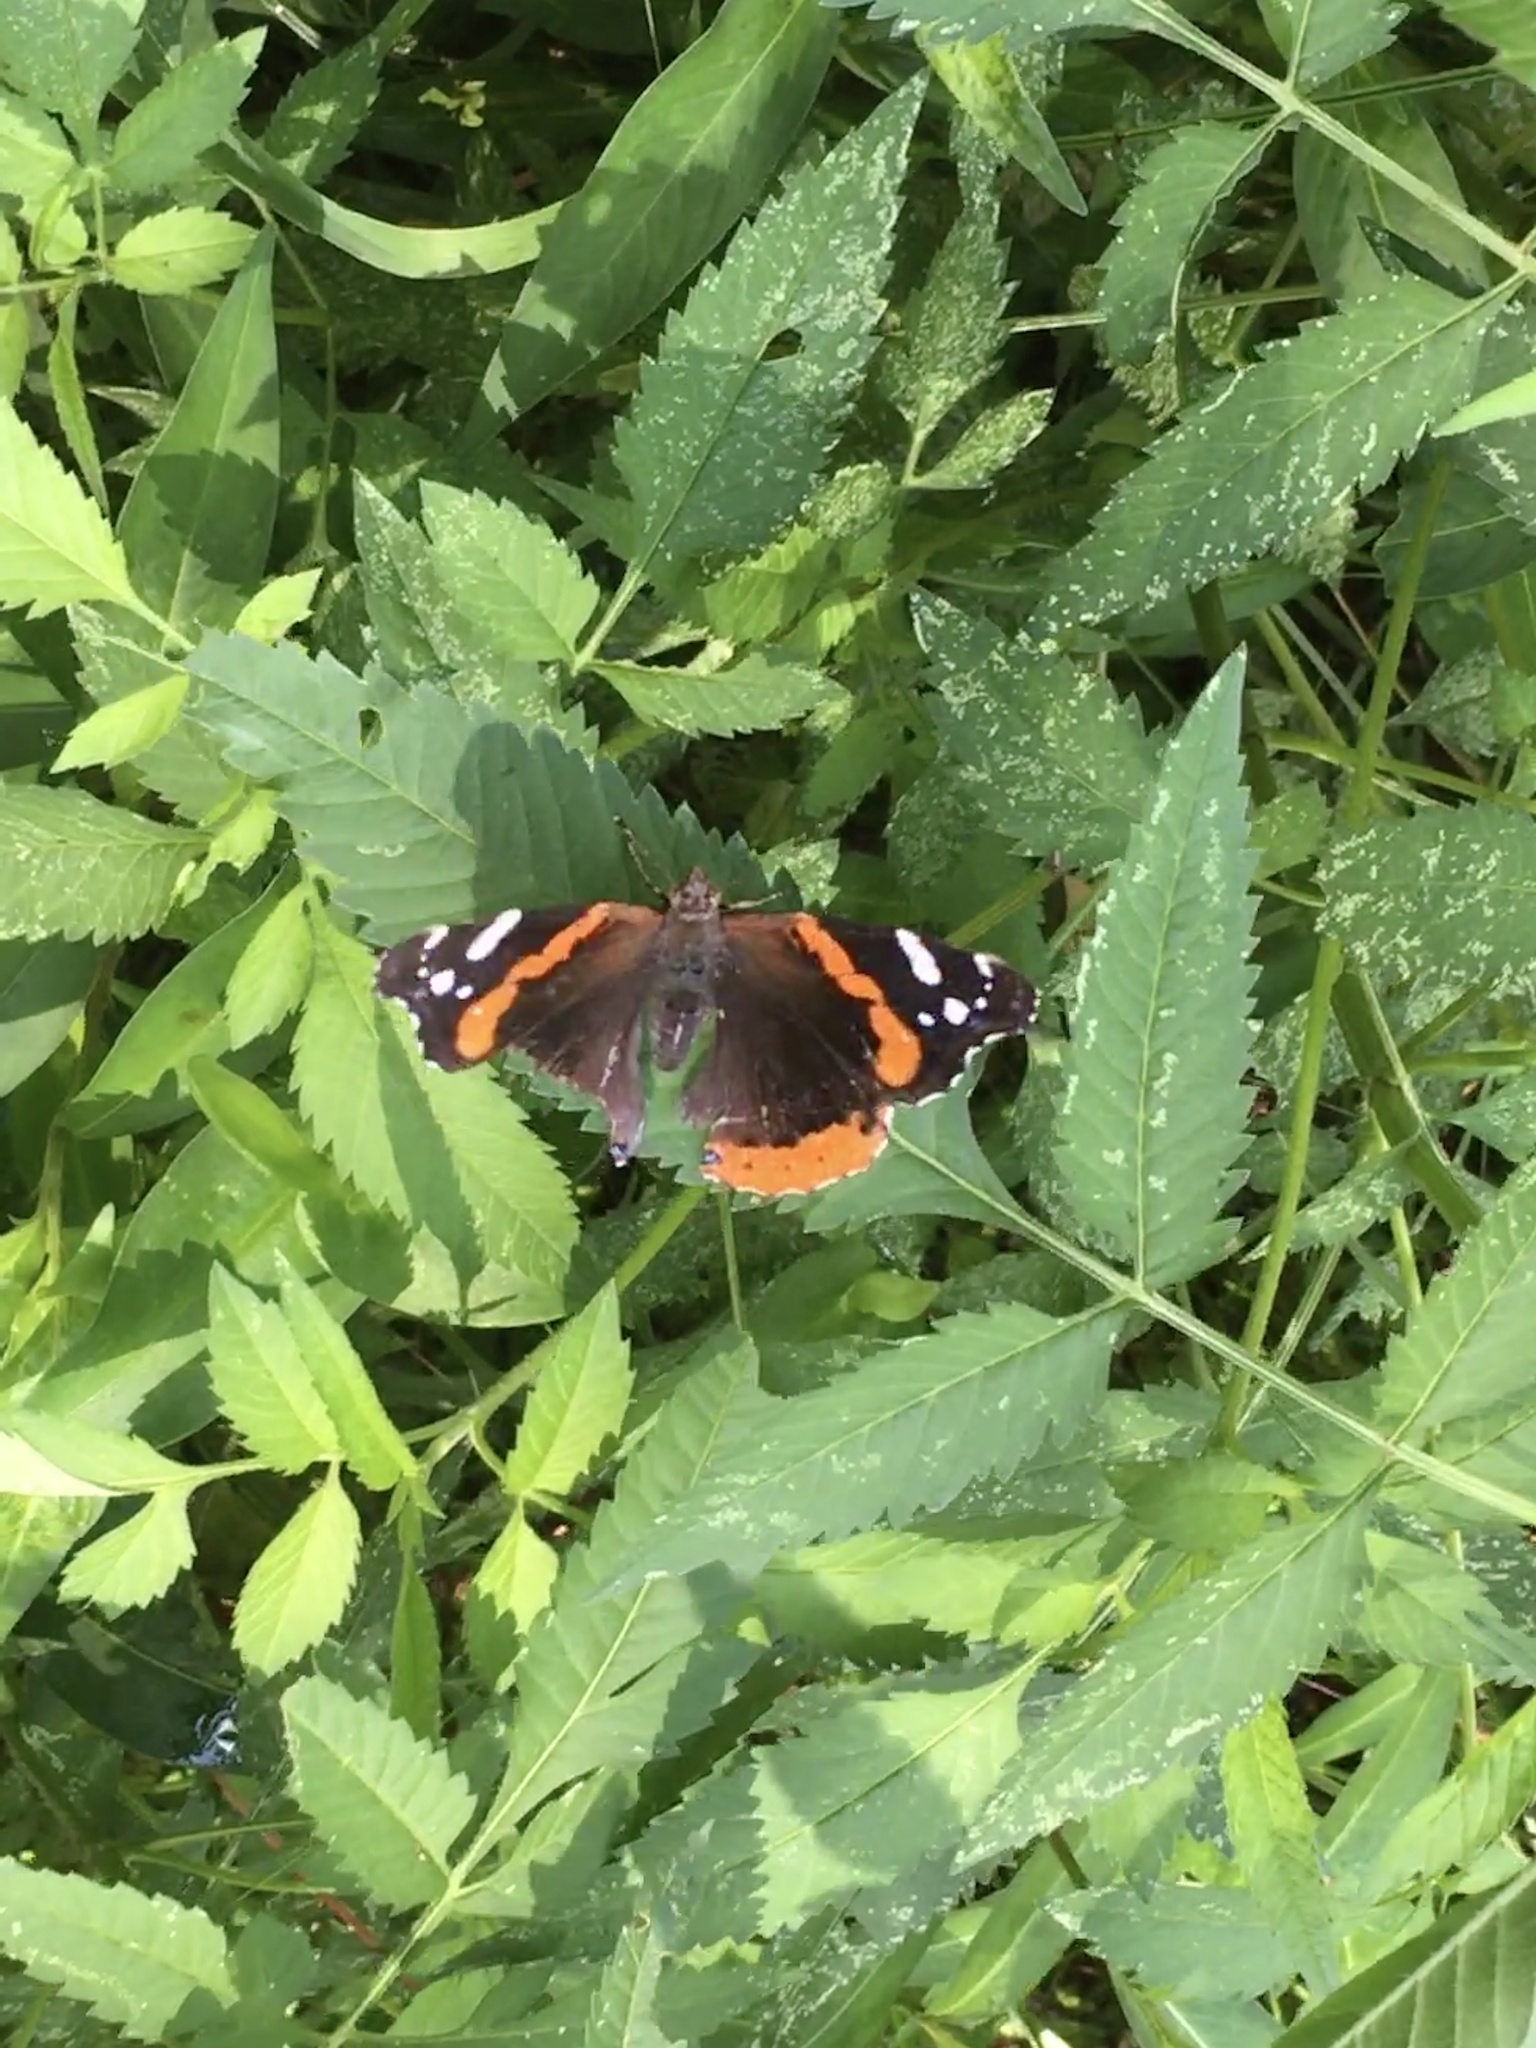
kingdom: Animalia
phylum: Arthropoda
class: Insecta
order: Lepidoptera
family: Nymphalidae
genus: Vanessa
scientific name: Vanessa atalanta
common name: Red admiral
